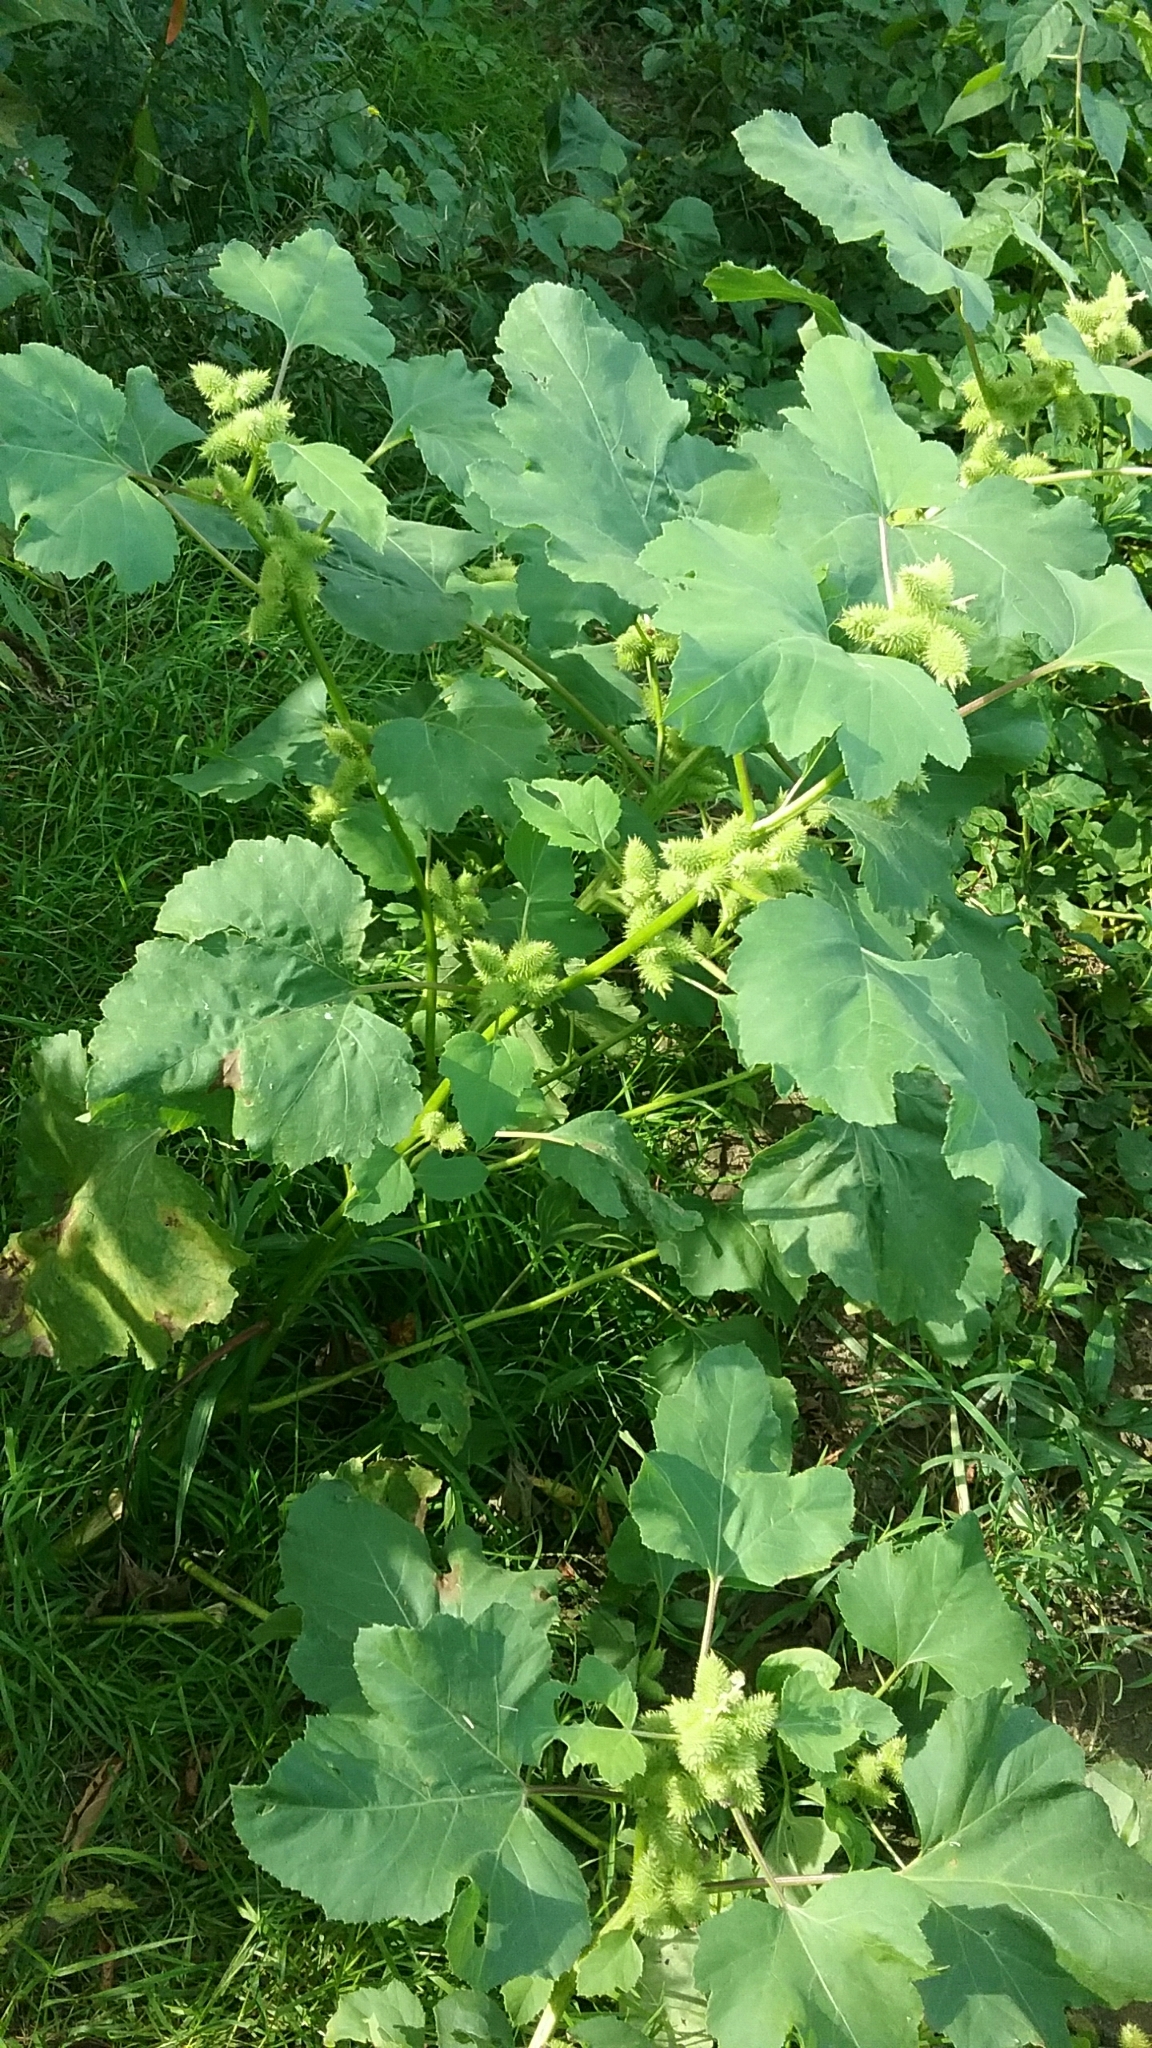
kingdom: Plantae
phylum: Tracheophyta
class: Magnoliopsida
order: Asterales
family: Asteraceae
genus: Xanthium
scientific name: Xanthium strumarium
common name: Rough cocklebur
